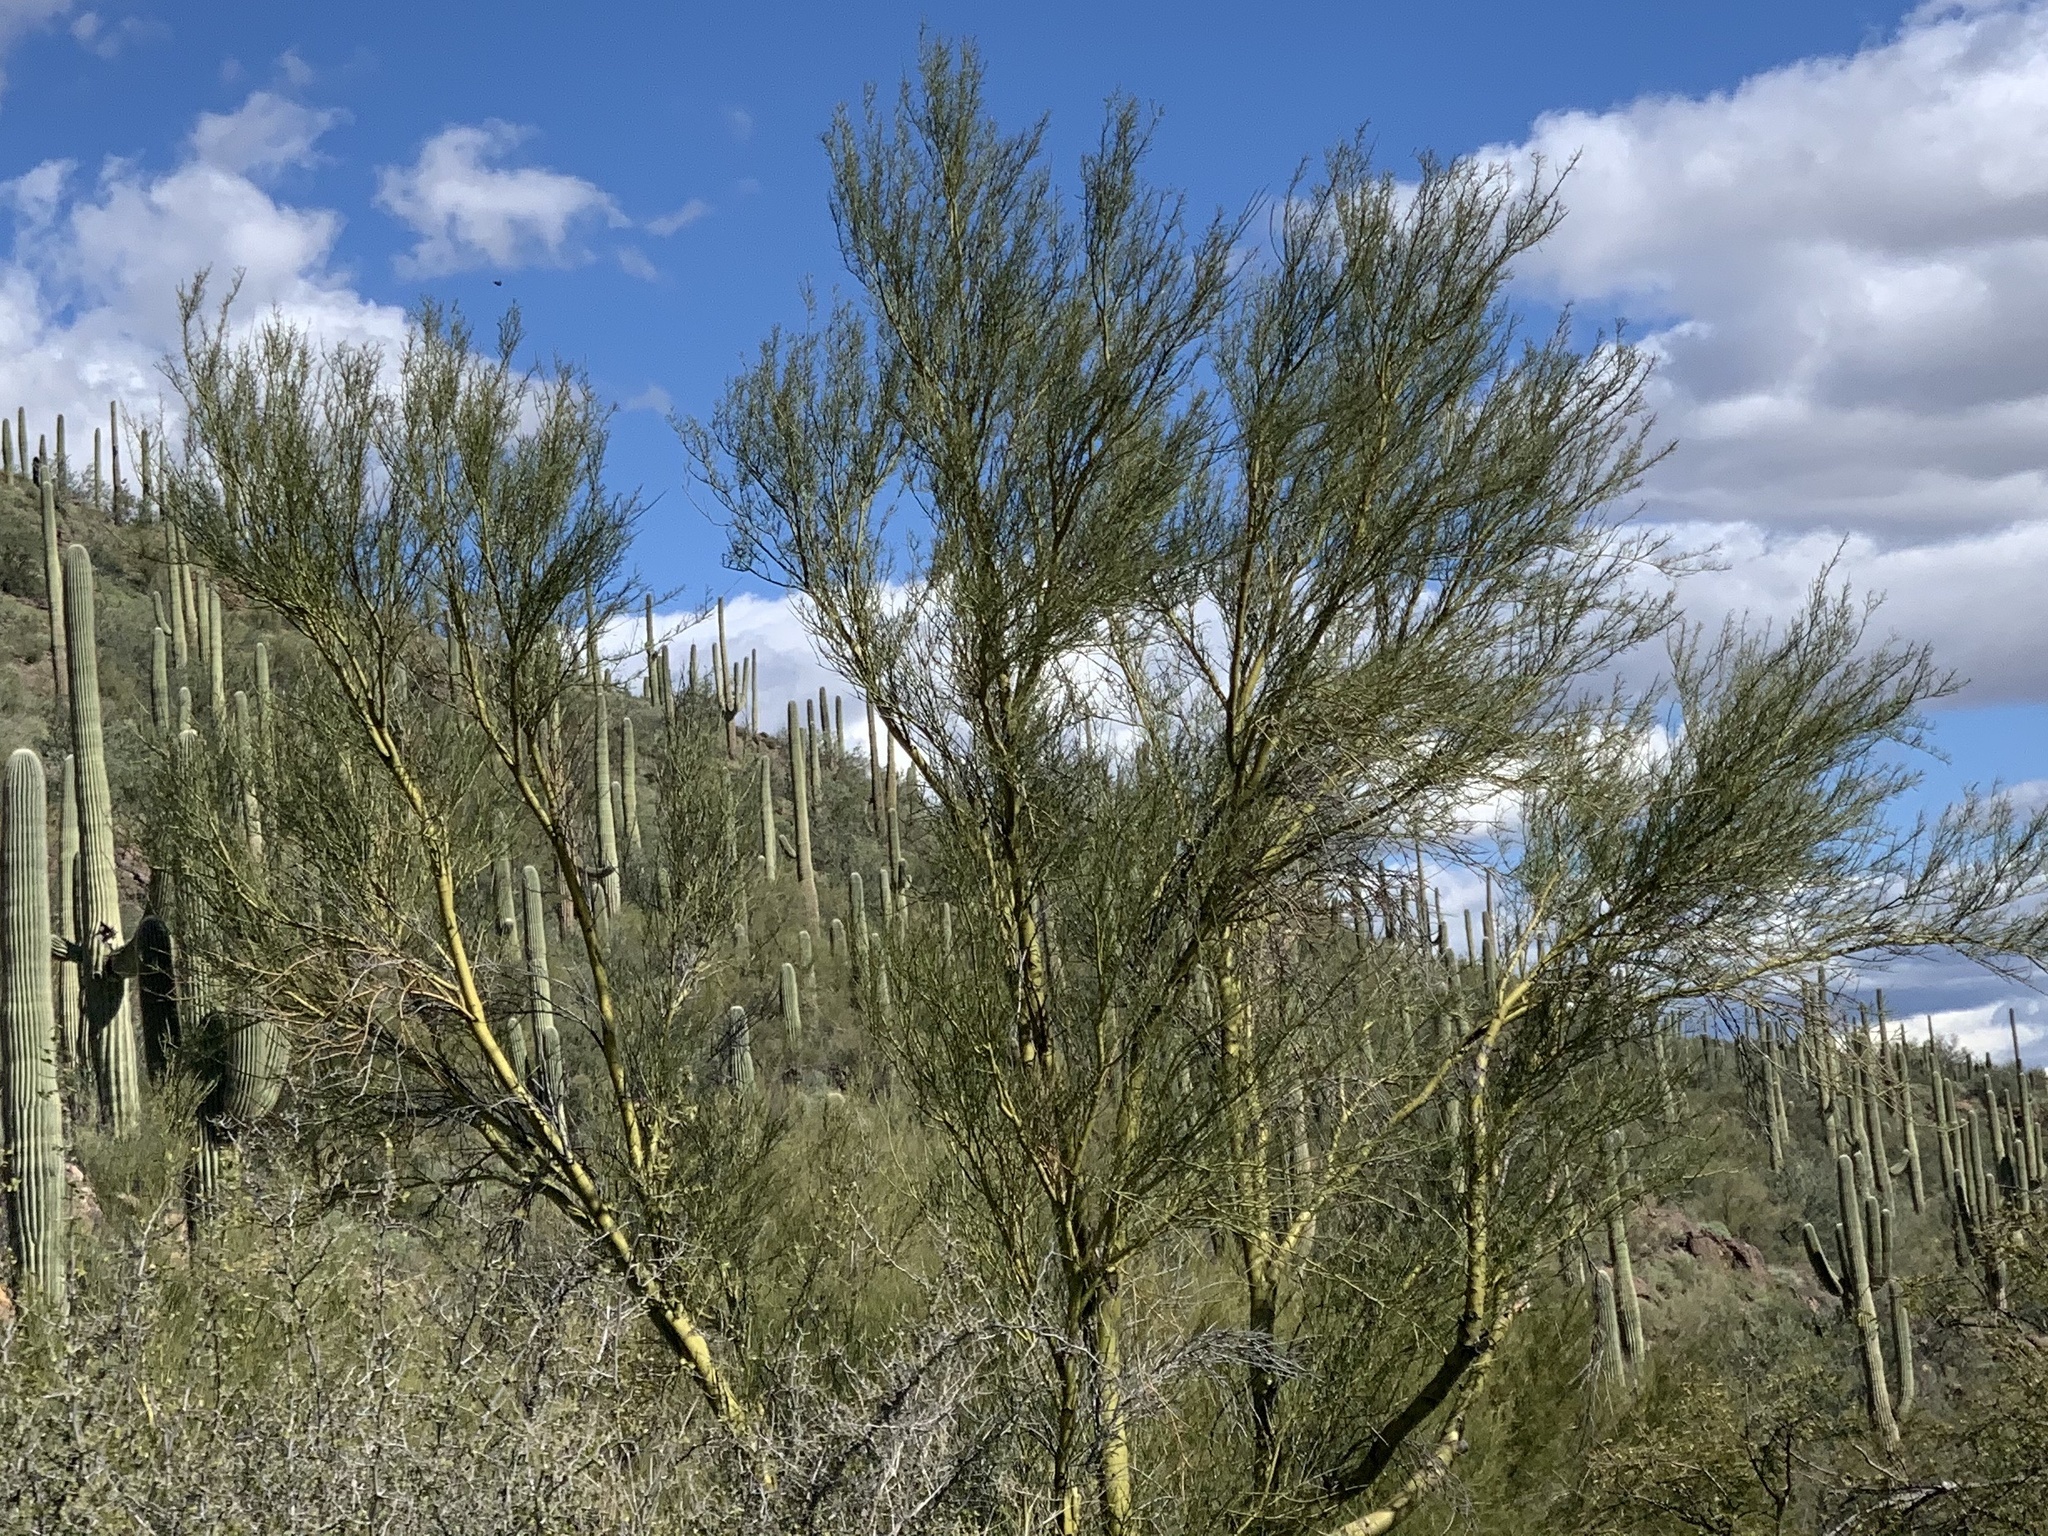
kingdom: Plantae
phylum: Tracheophyta
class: Magnoliopsida
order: Fabales
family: Fabaceae
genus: Parkinsonia
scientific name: Parkinsonia microphylla
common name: Yellow paloverde
